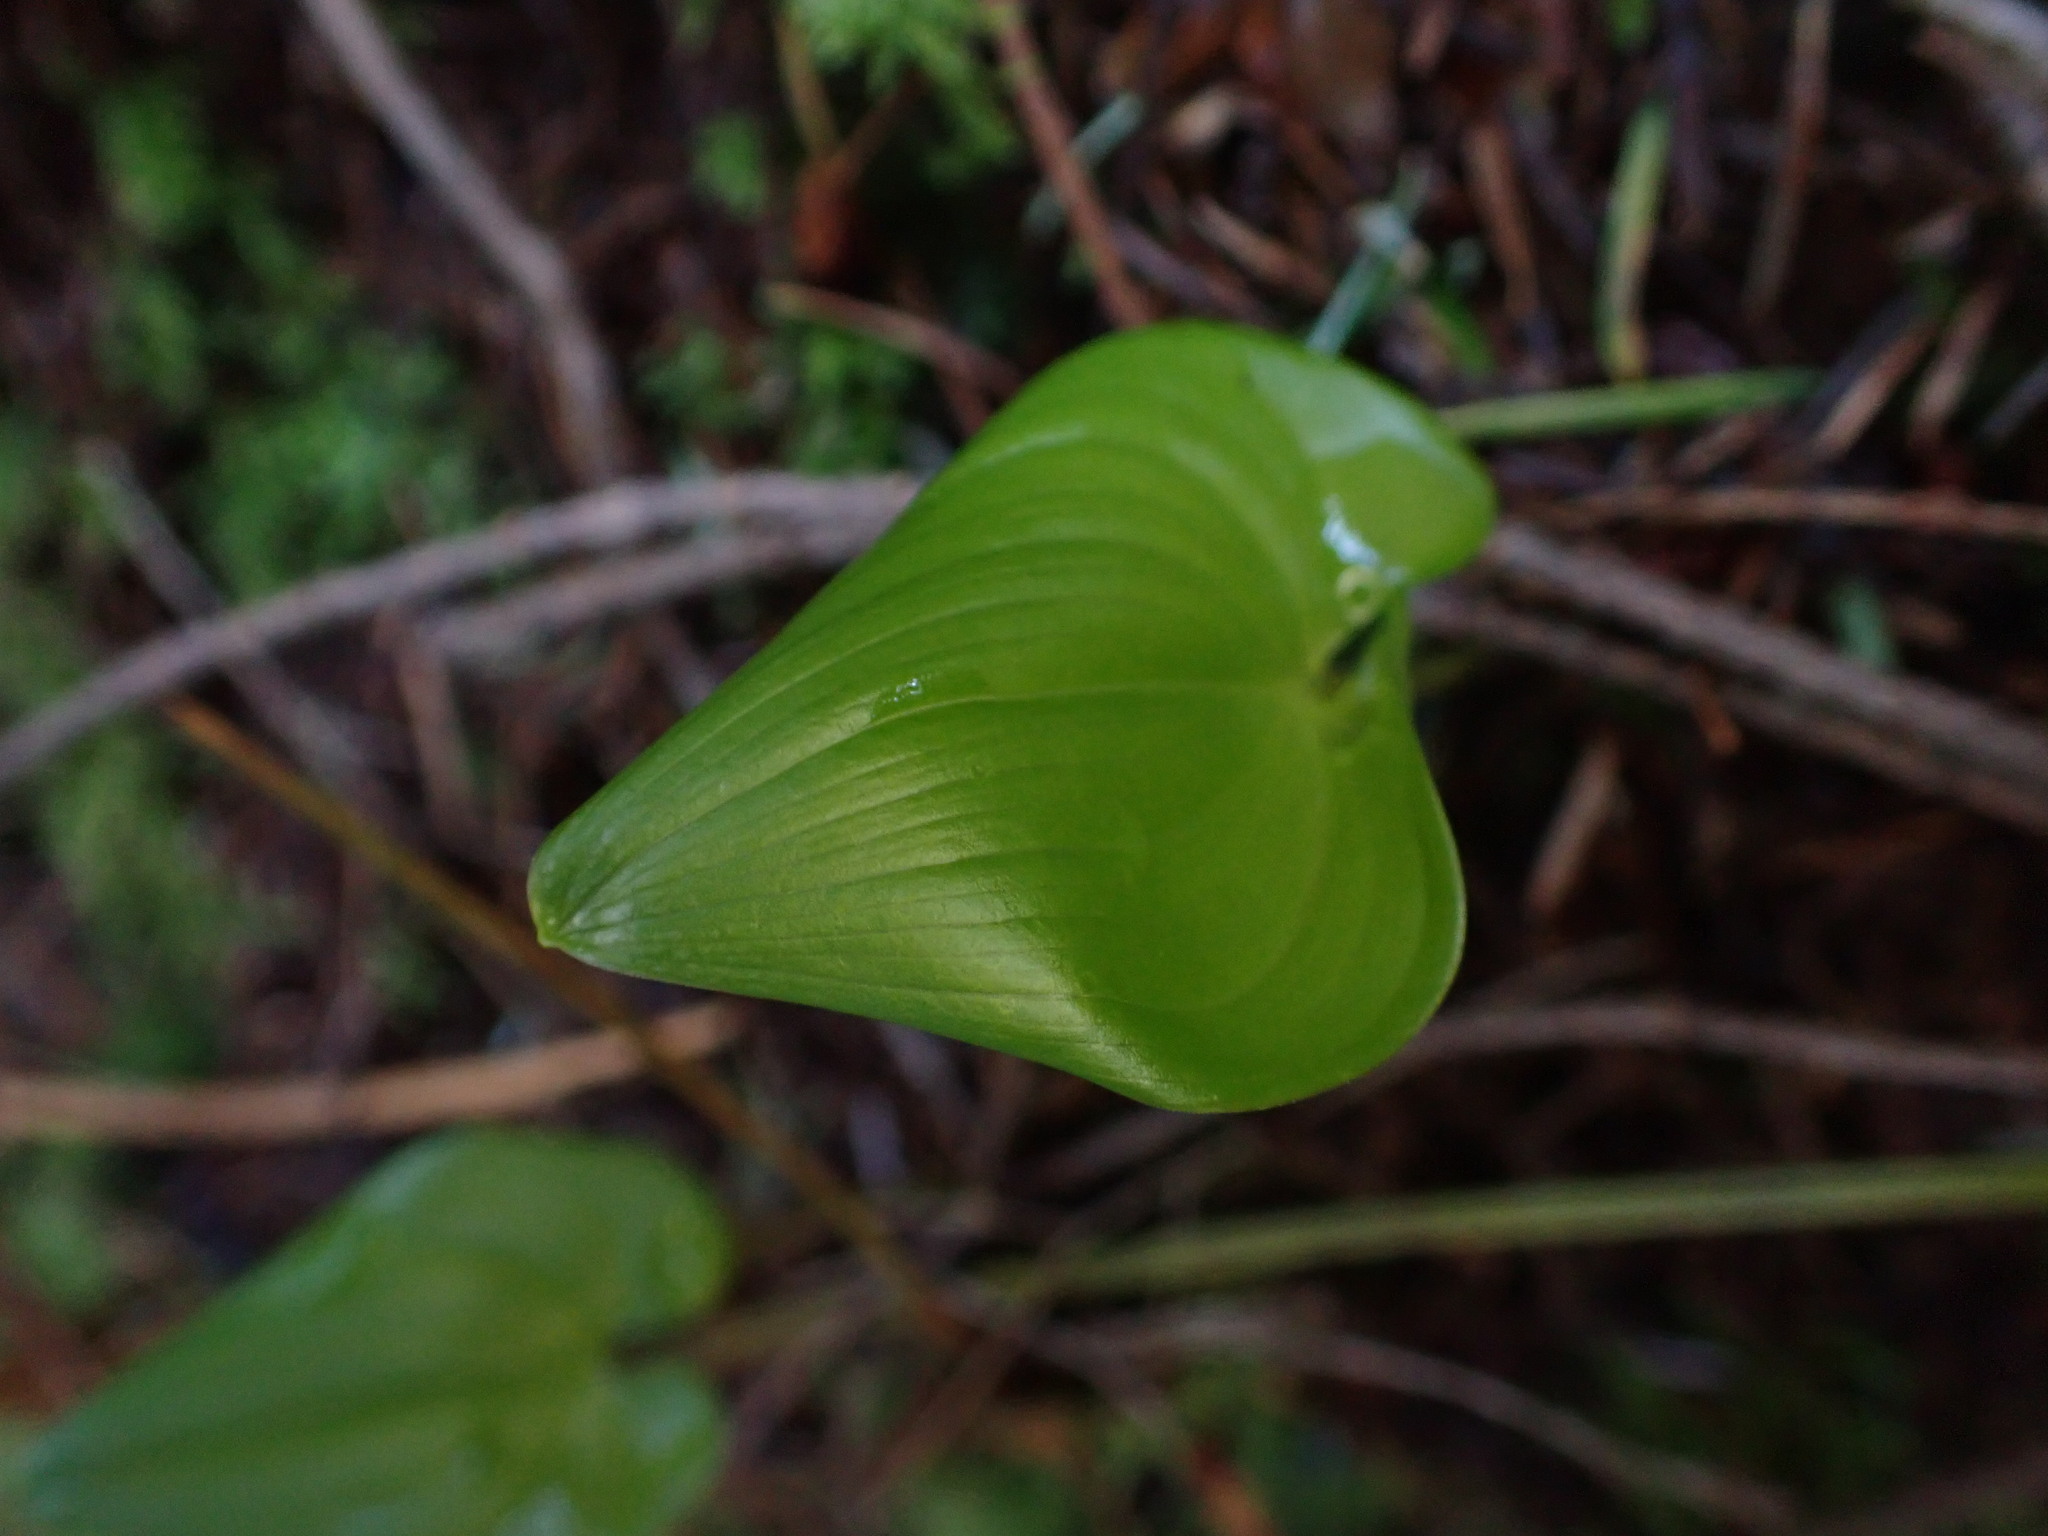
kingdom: Plantae
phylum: Tracheophyta
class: Liliopsida
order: Asparagales
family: Asparagaceae
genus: Maianthemum
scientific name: Maianthemum dilatatum
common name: False lily-of-the-valley
